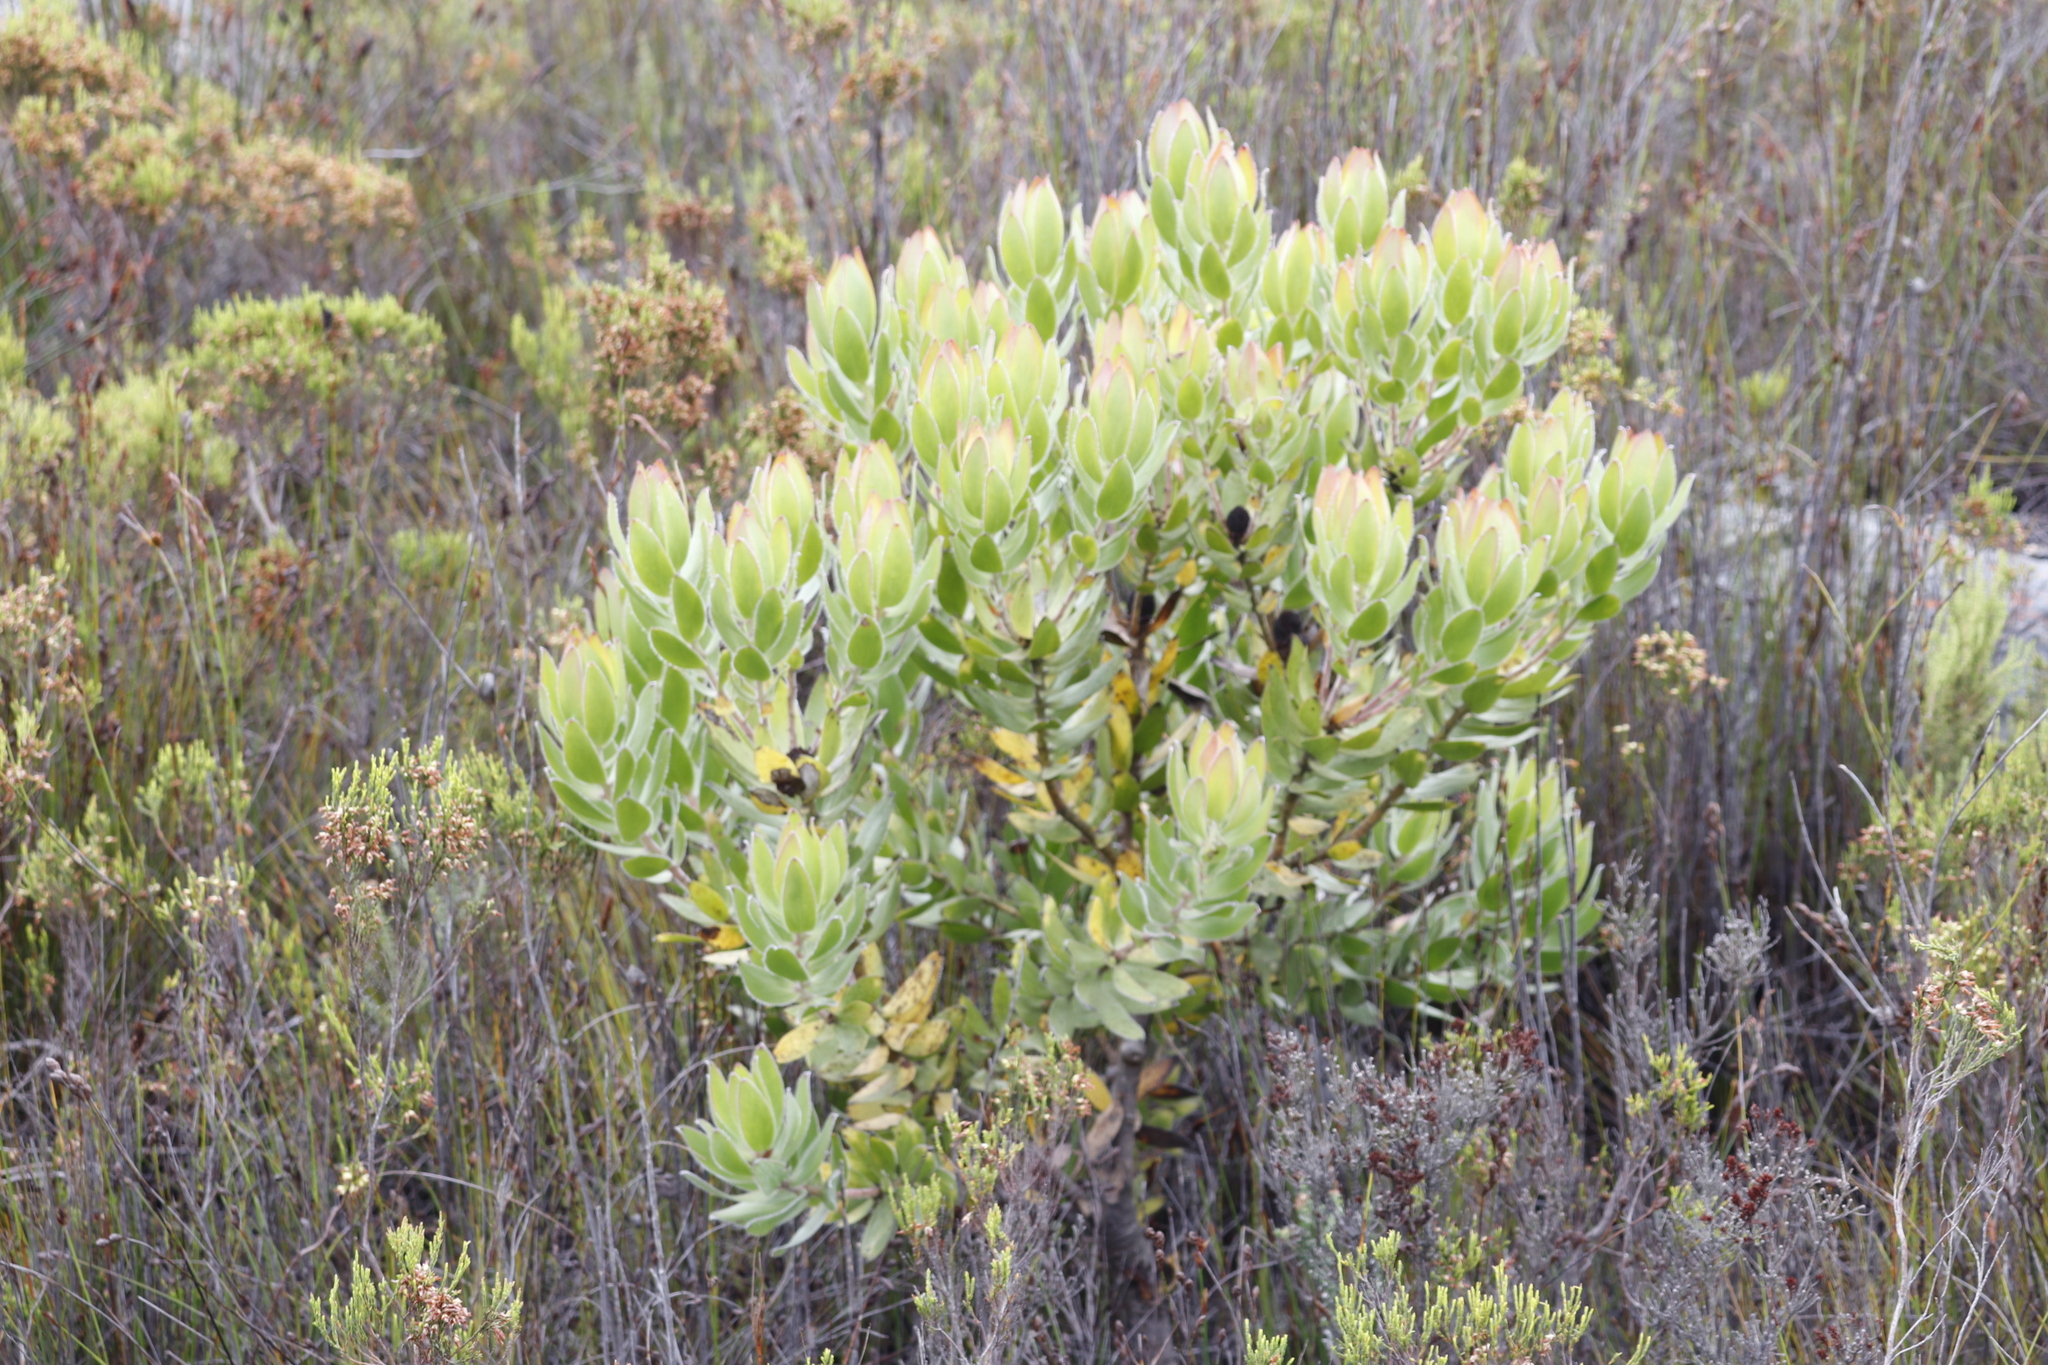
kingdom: Plantae
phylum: Tracheophyta
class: Magnoliopsida
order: Proteales
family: Proteaceae
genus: Leucadendron
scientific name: Leucadendron gandogeri
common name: Broad-leaf conebush
